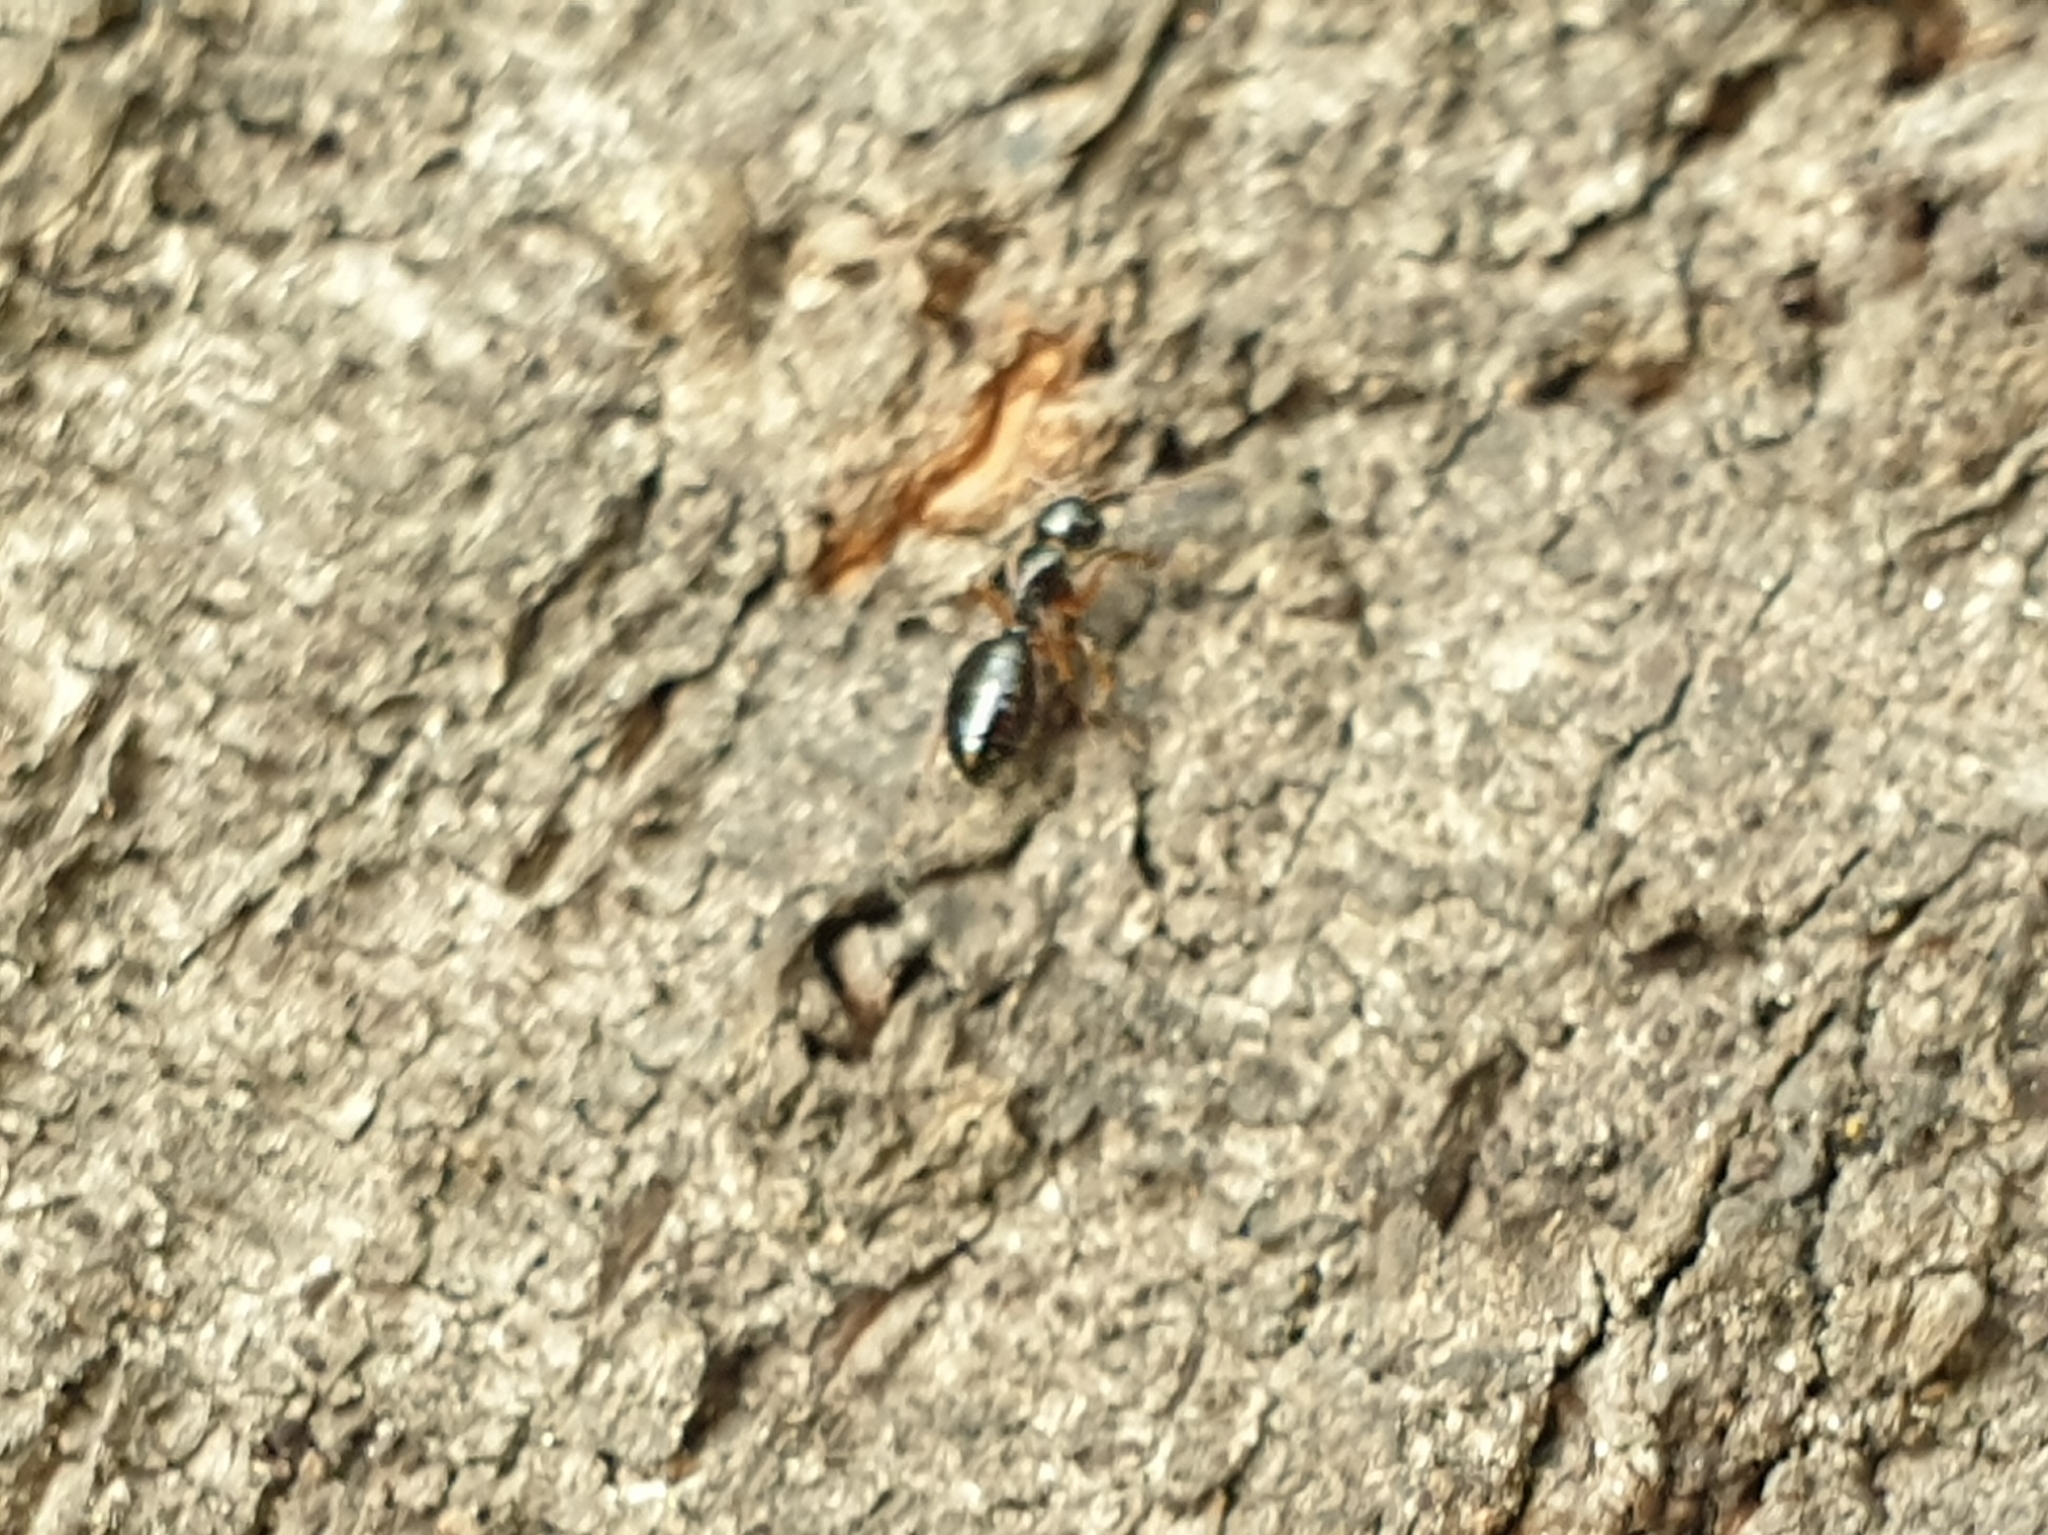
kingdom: Animalia
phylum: Arthropoda
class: Insecta
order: Hymenoptera
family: Formicidae
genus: Camponotus
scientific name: Camponotus itoi
